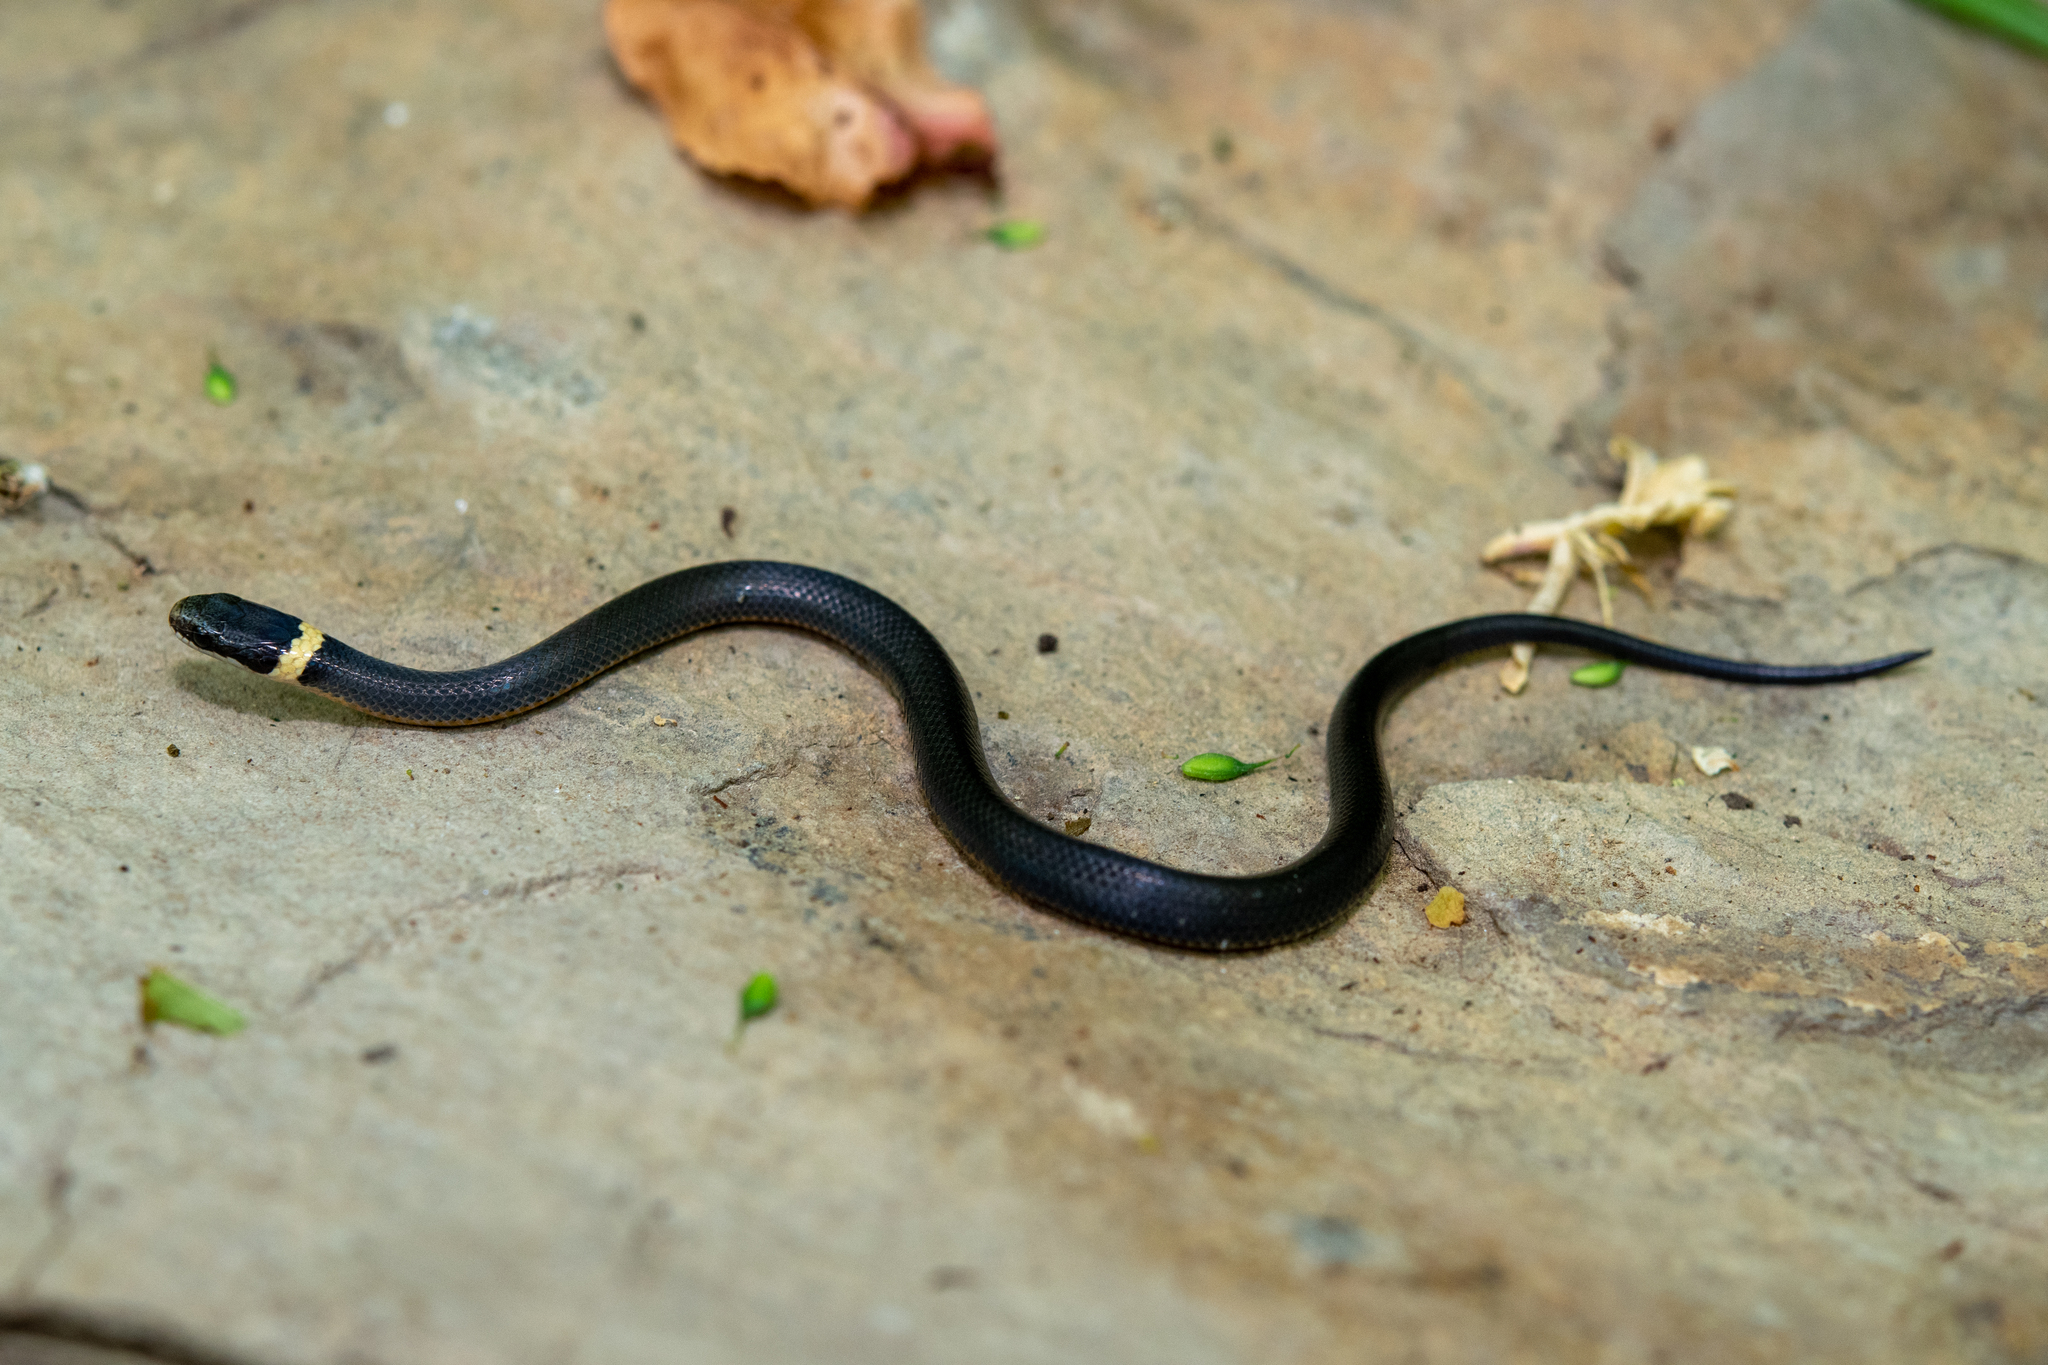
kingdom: Animalia
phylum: Chordata
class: Squamata
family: Colubridae
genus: Diadophis
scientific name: Diadophis punctatus
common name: Ringneck snake
